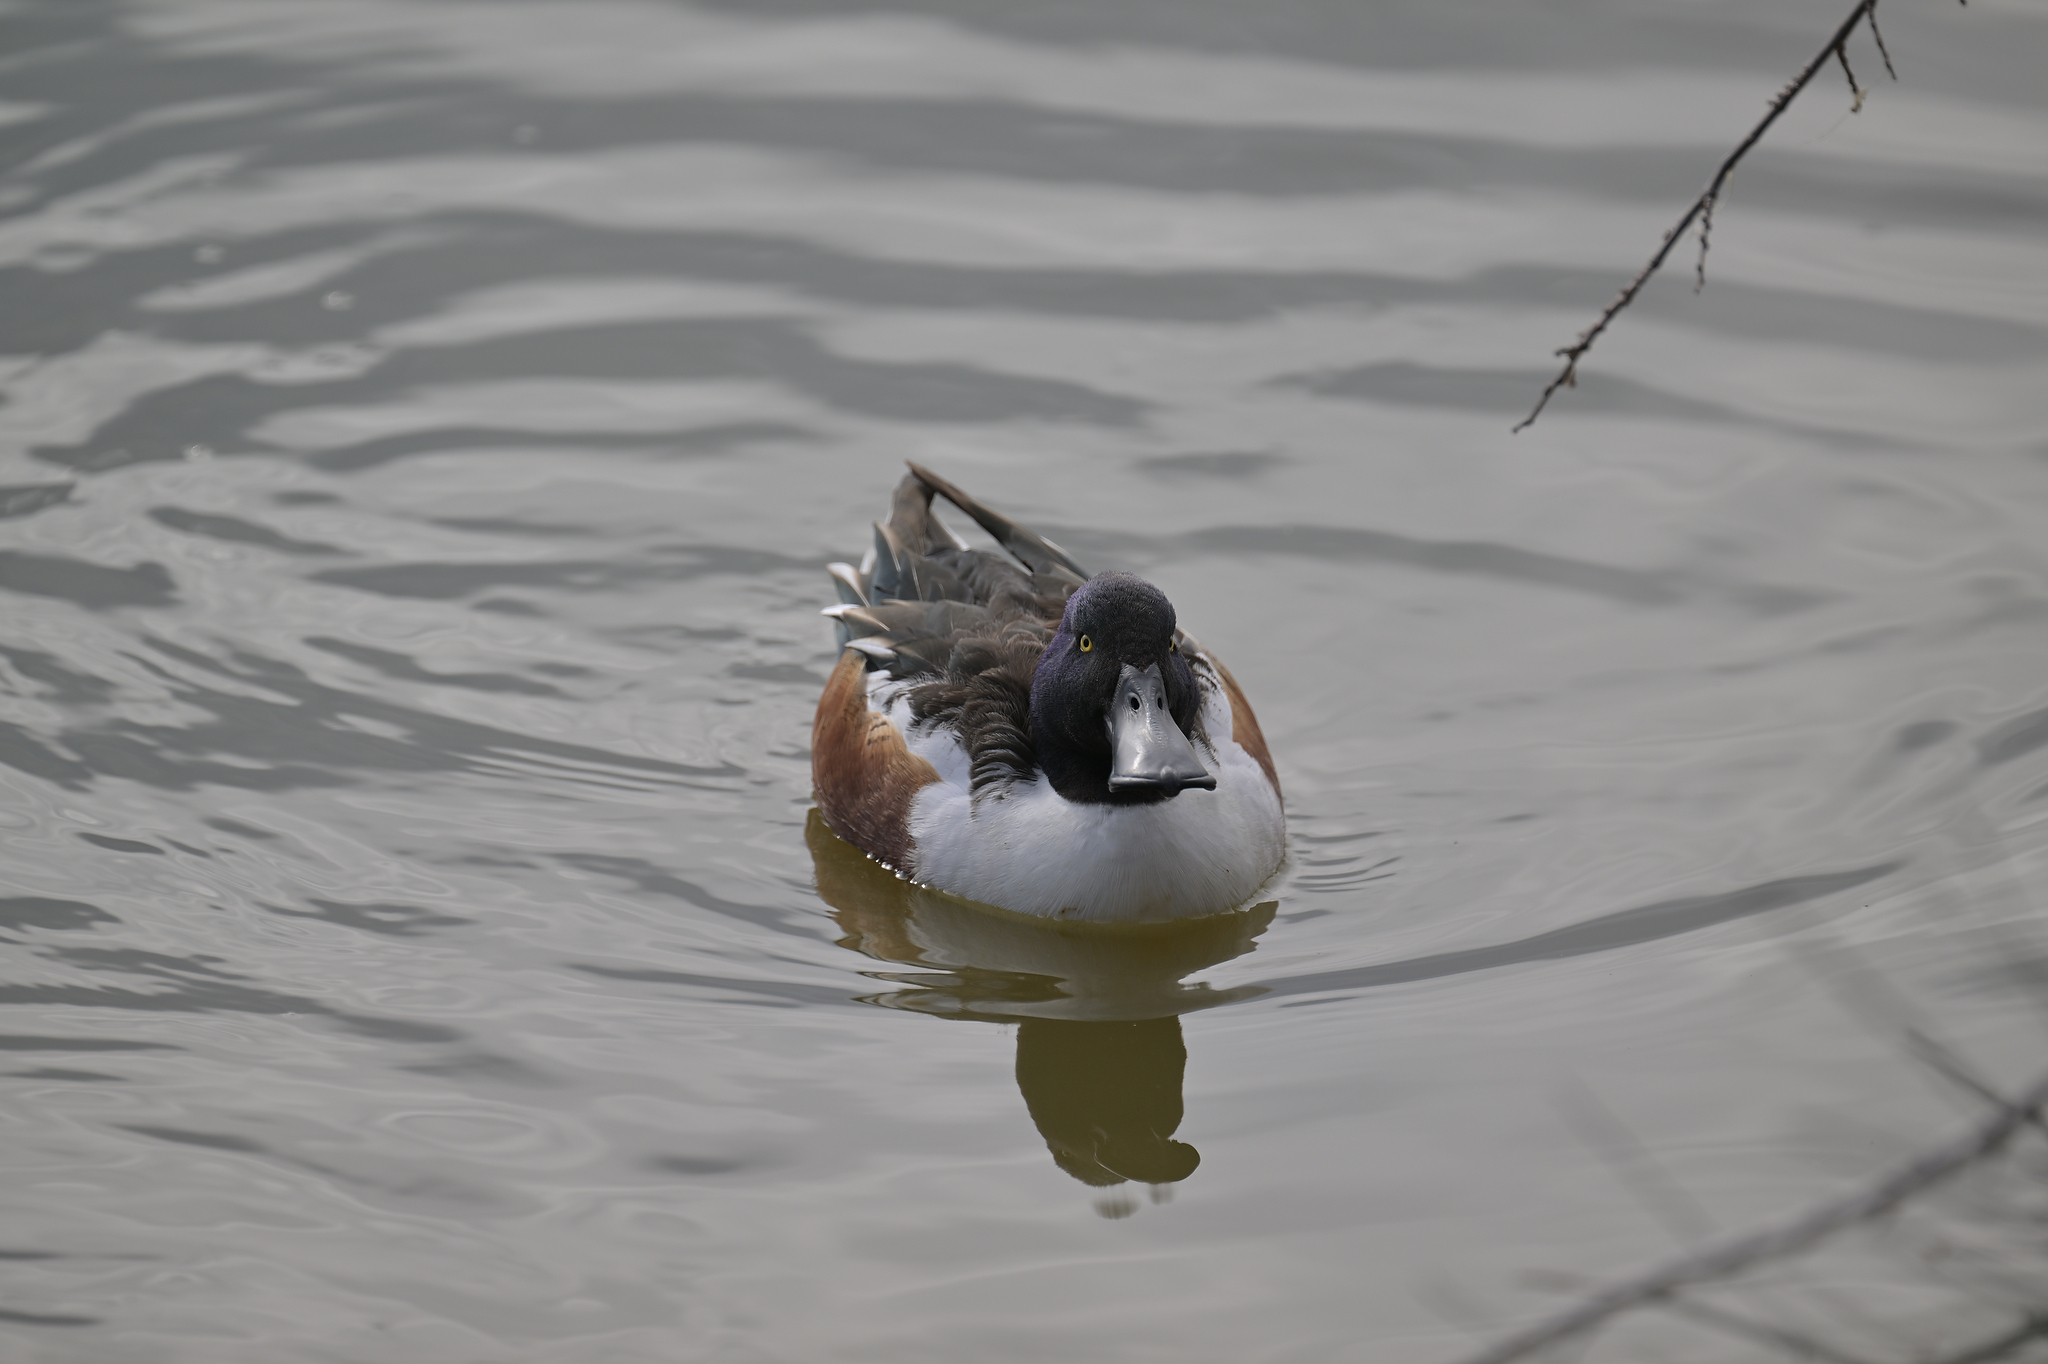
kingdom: Animalia
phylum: Chordata
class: Aves
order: Anseriformes
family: Anatidae
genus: Spatula
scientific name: Spatula clypeata
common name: Northern shoveler
